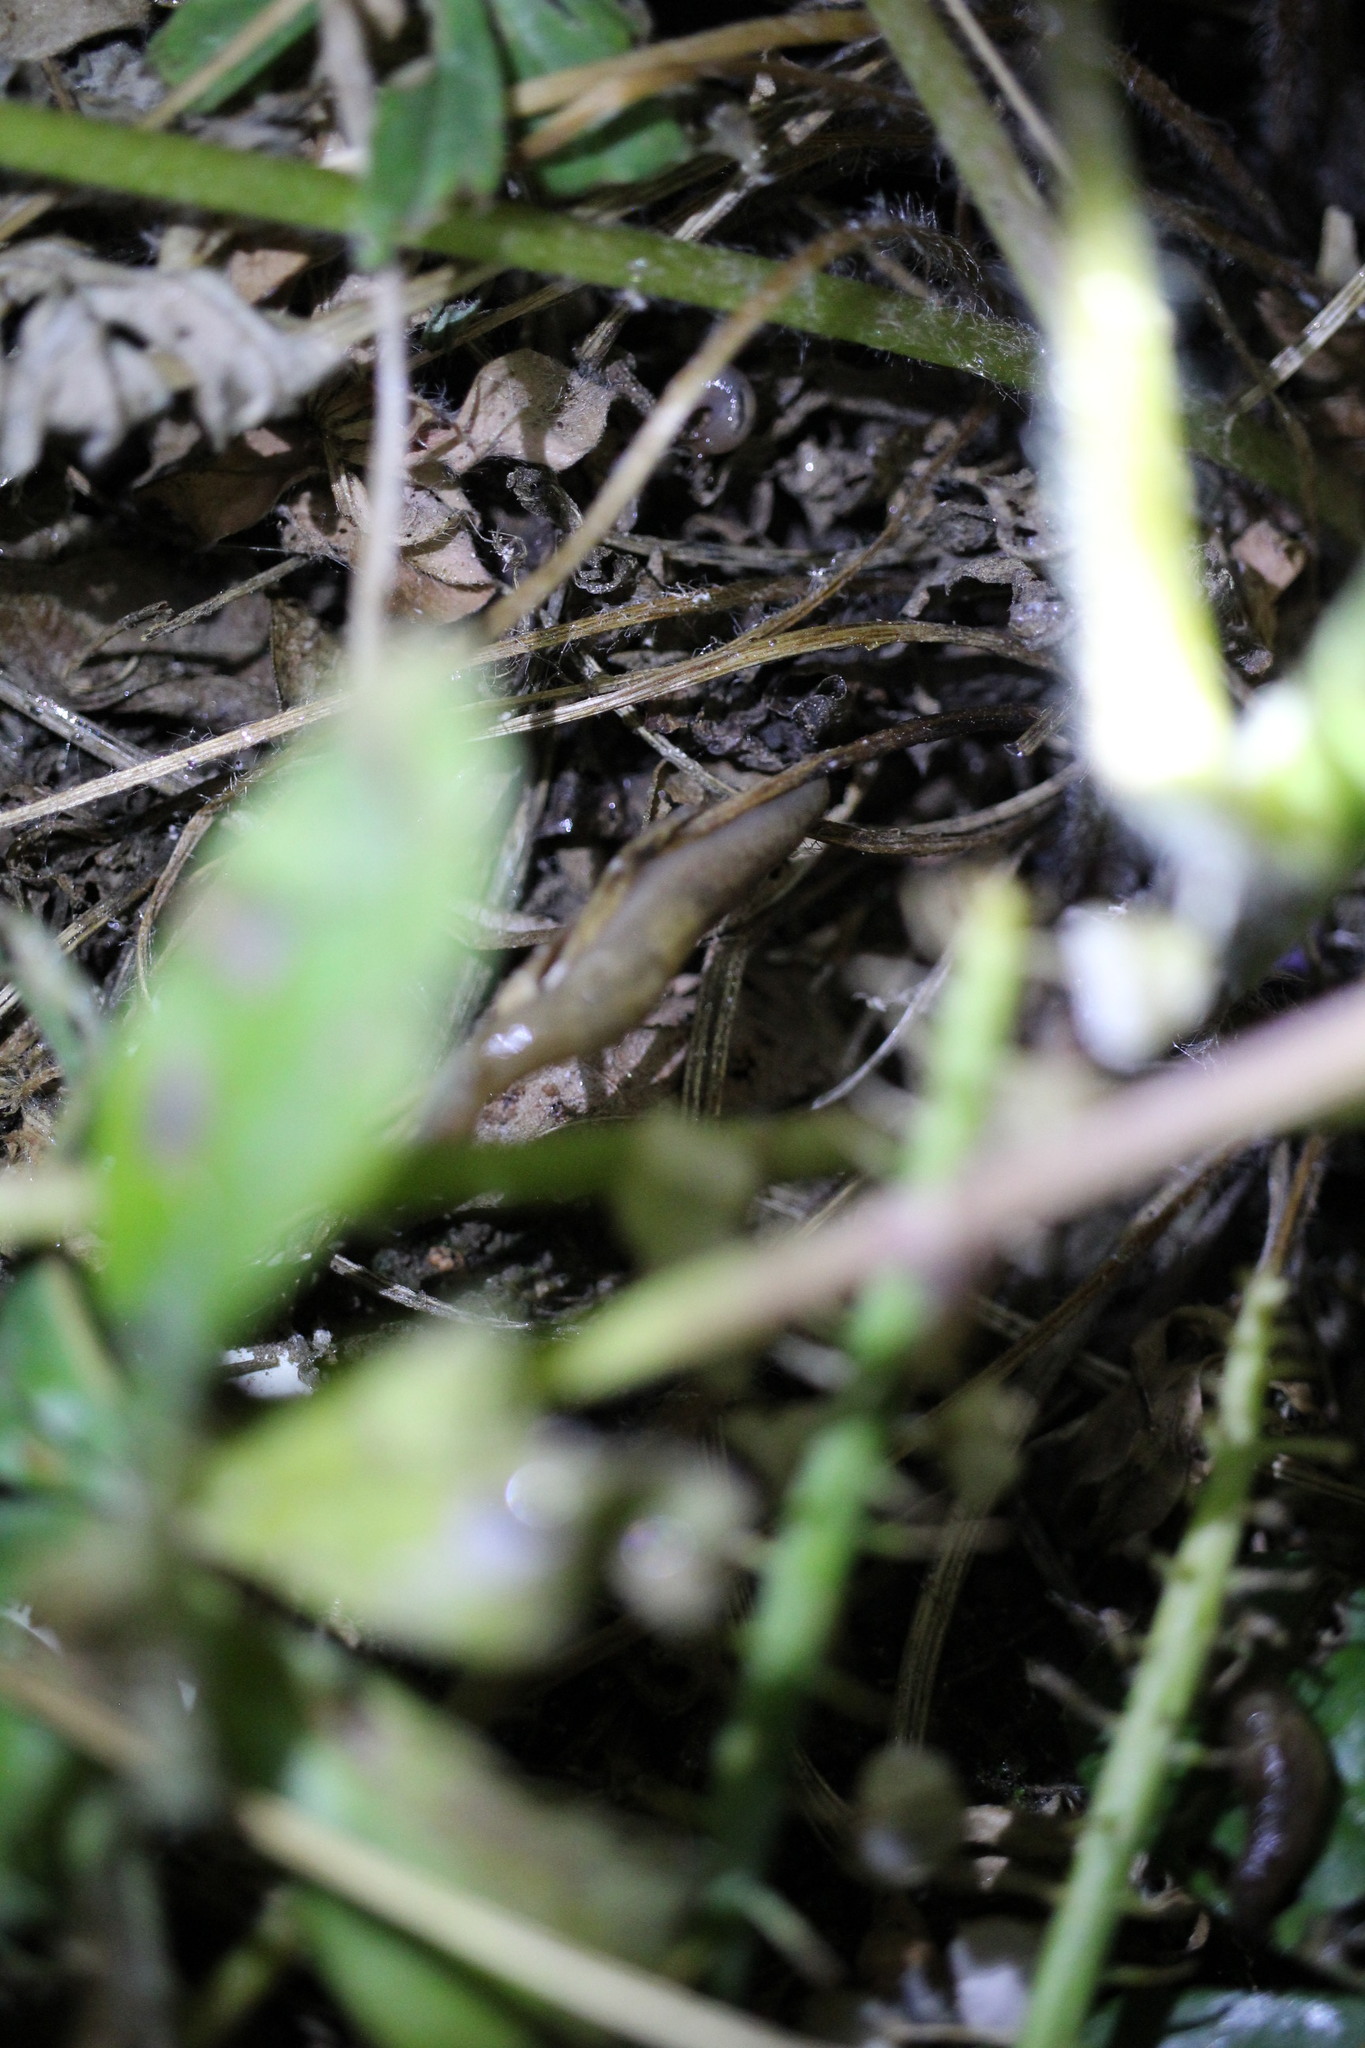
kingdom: Animalia
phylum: Mollusca
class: Gastropoda
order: Stylommatophora
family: Limacidae
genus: Ambigolimax
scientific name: Ambigolimax
